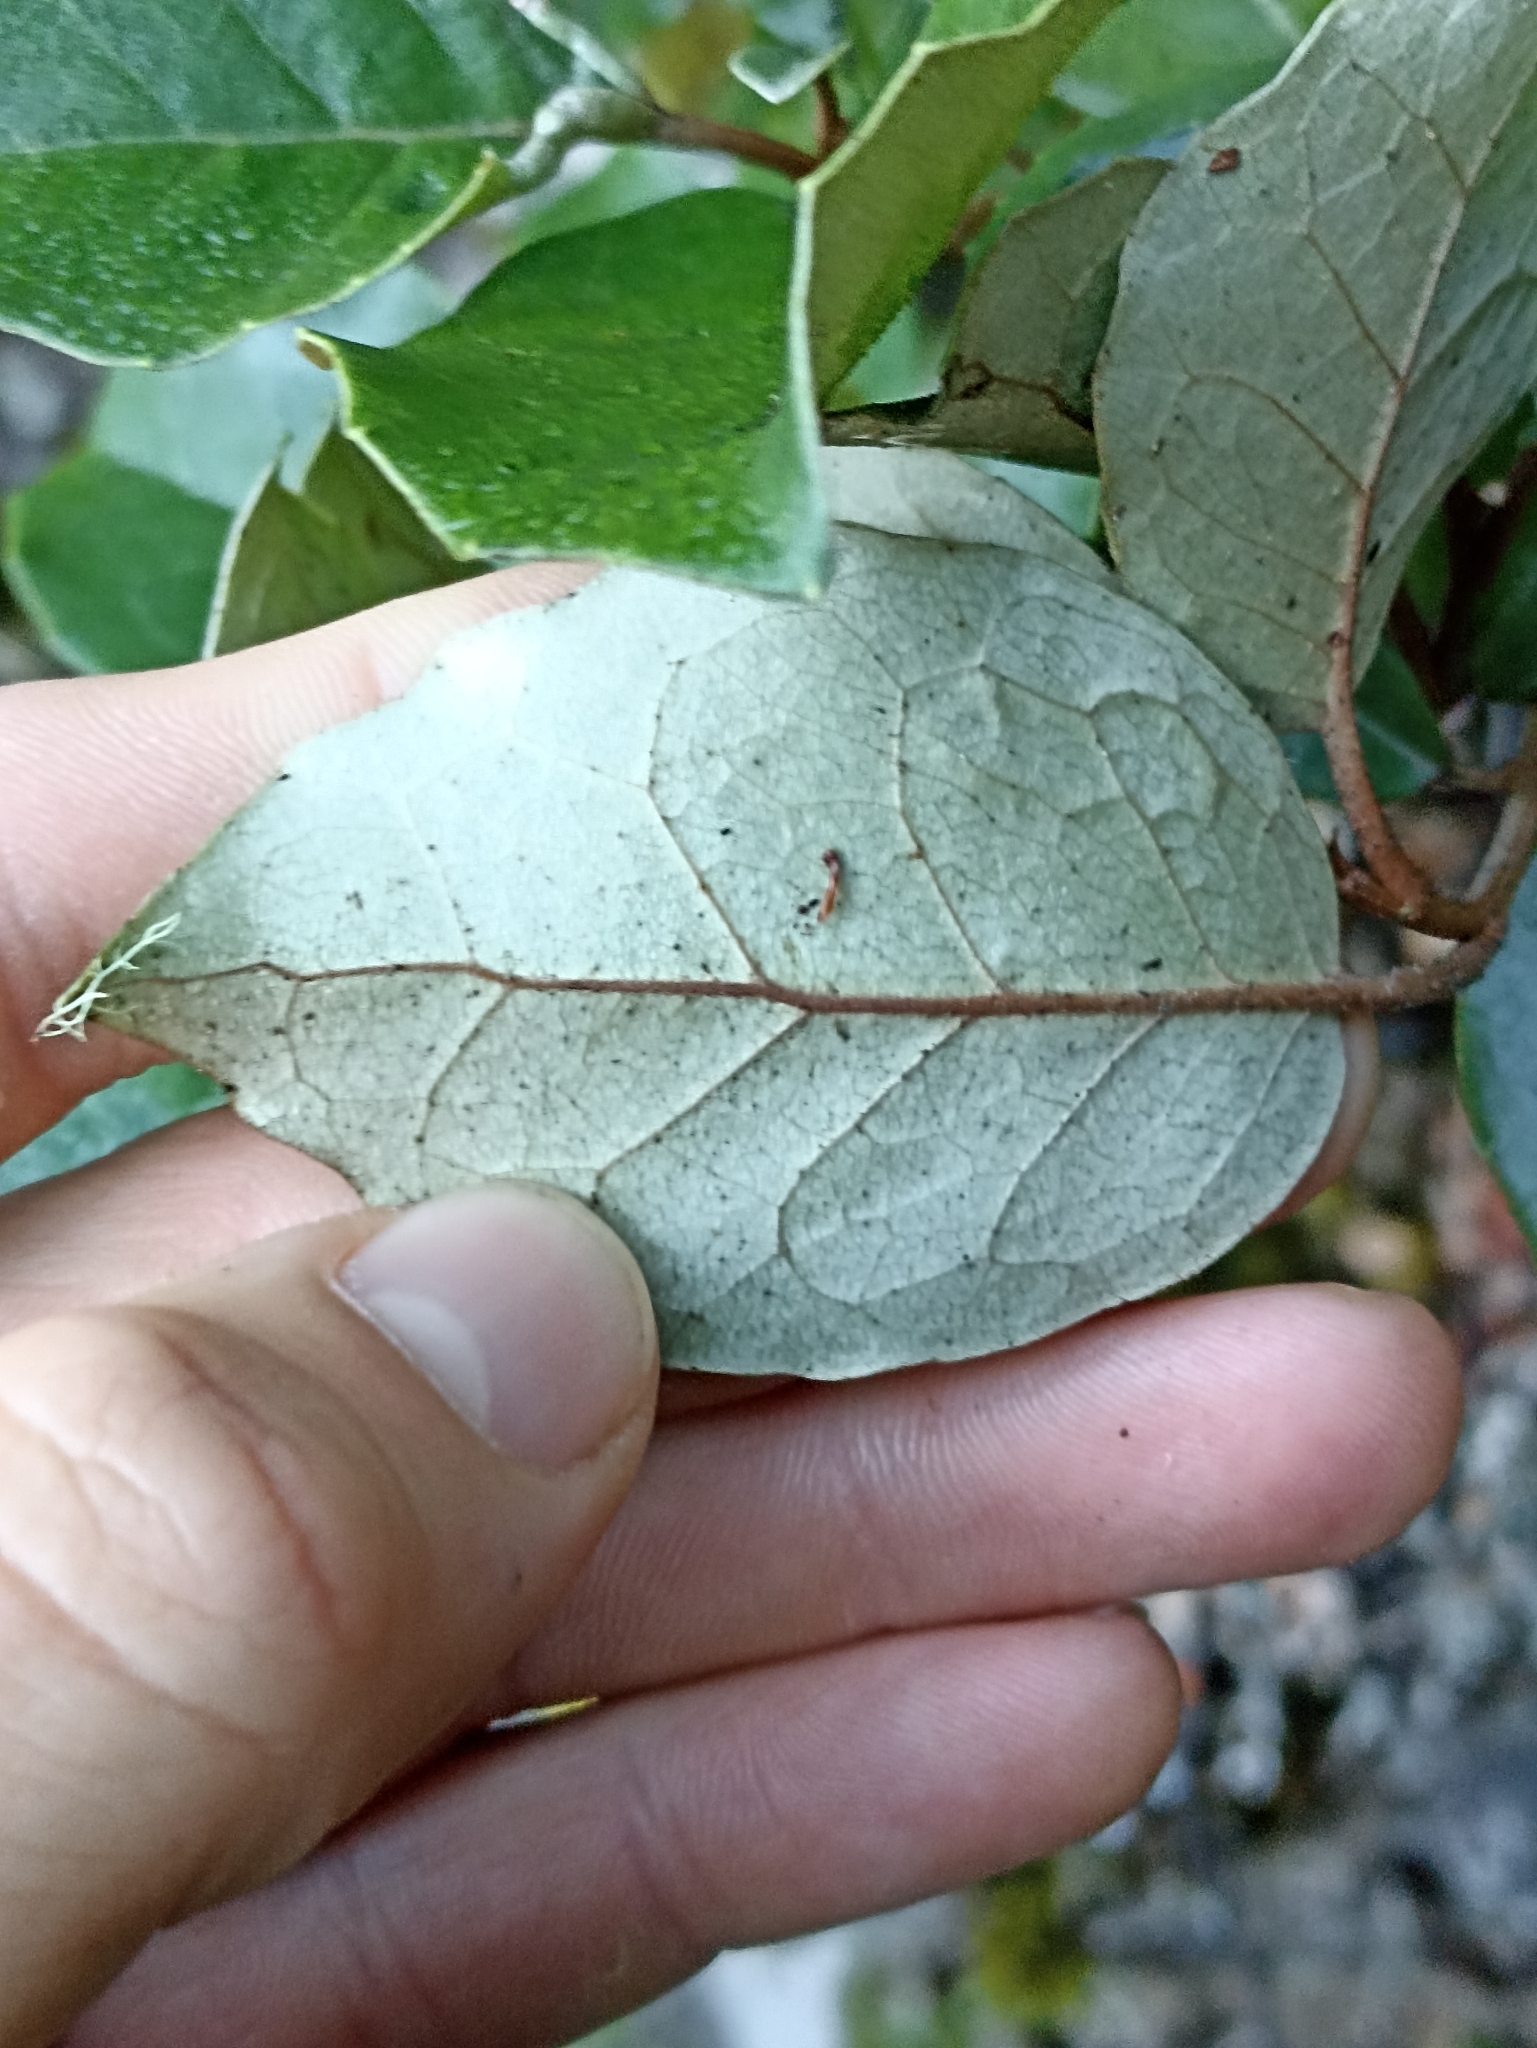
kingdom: Plantae
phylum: Tracheophyta
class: Magnoliopsida
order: Asterales
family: Asteraceae
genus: Olearia
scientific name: Olearia arborescens
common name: Glossy tree daisy
